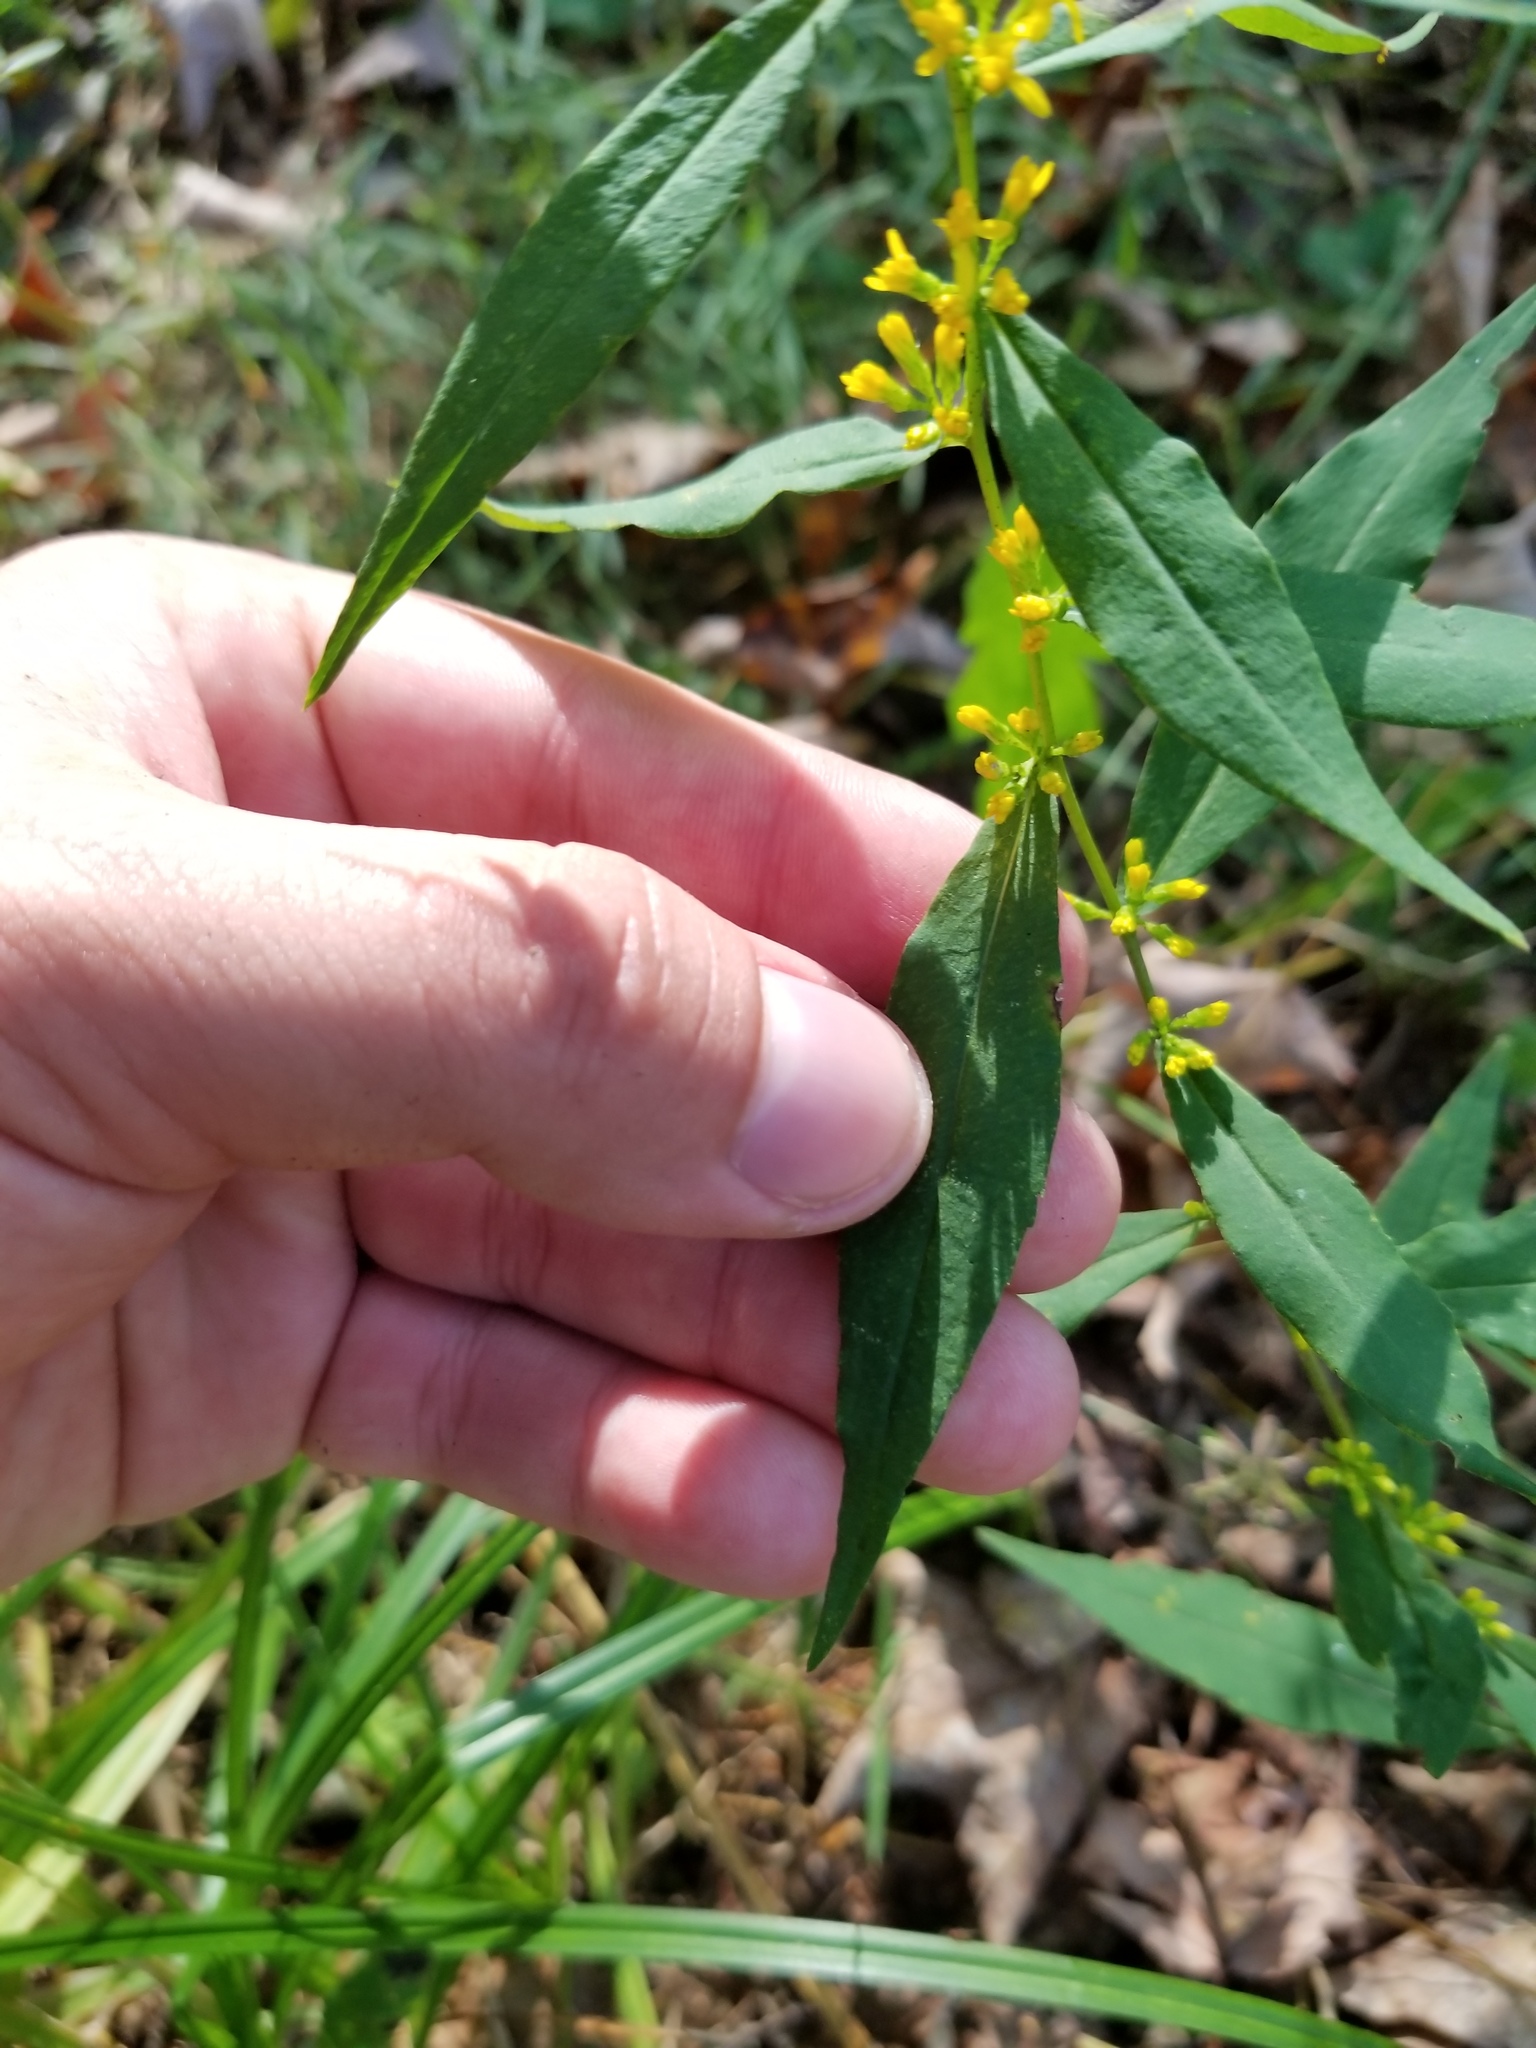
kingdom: Plantae
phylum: Tracheophyta
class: Magnoliopsida
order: Asterales
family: Asteraceae
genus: Solidago
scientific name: Solidago caesia
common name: Woodland goldenrod
